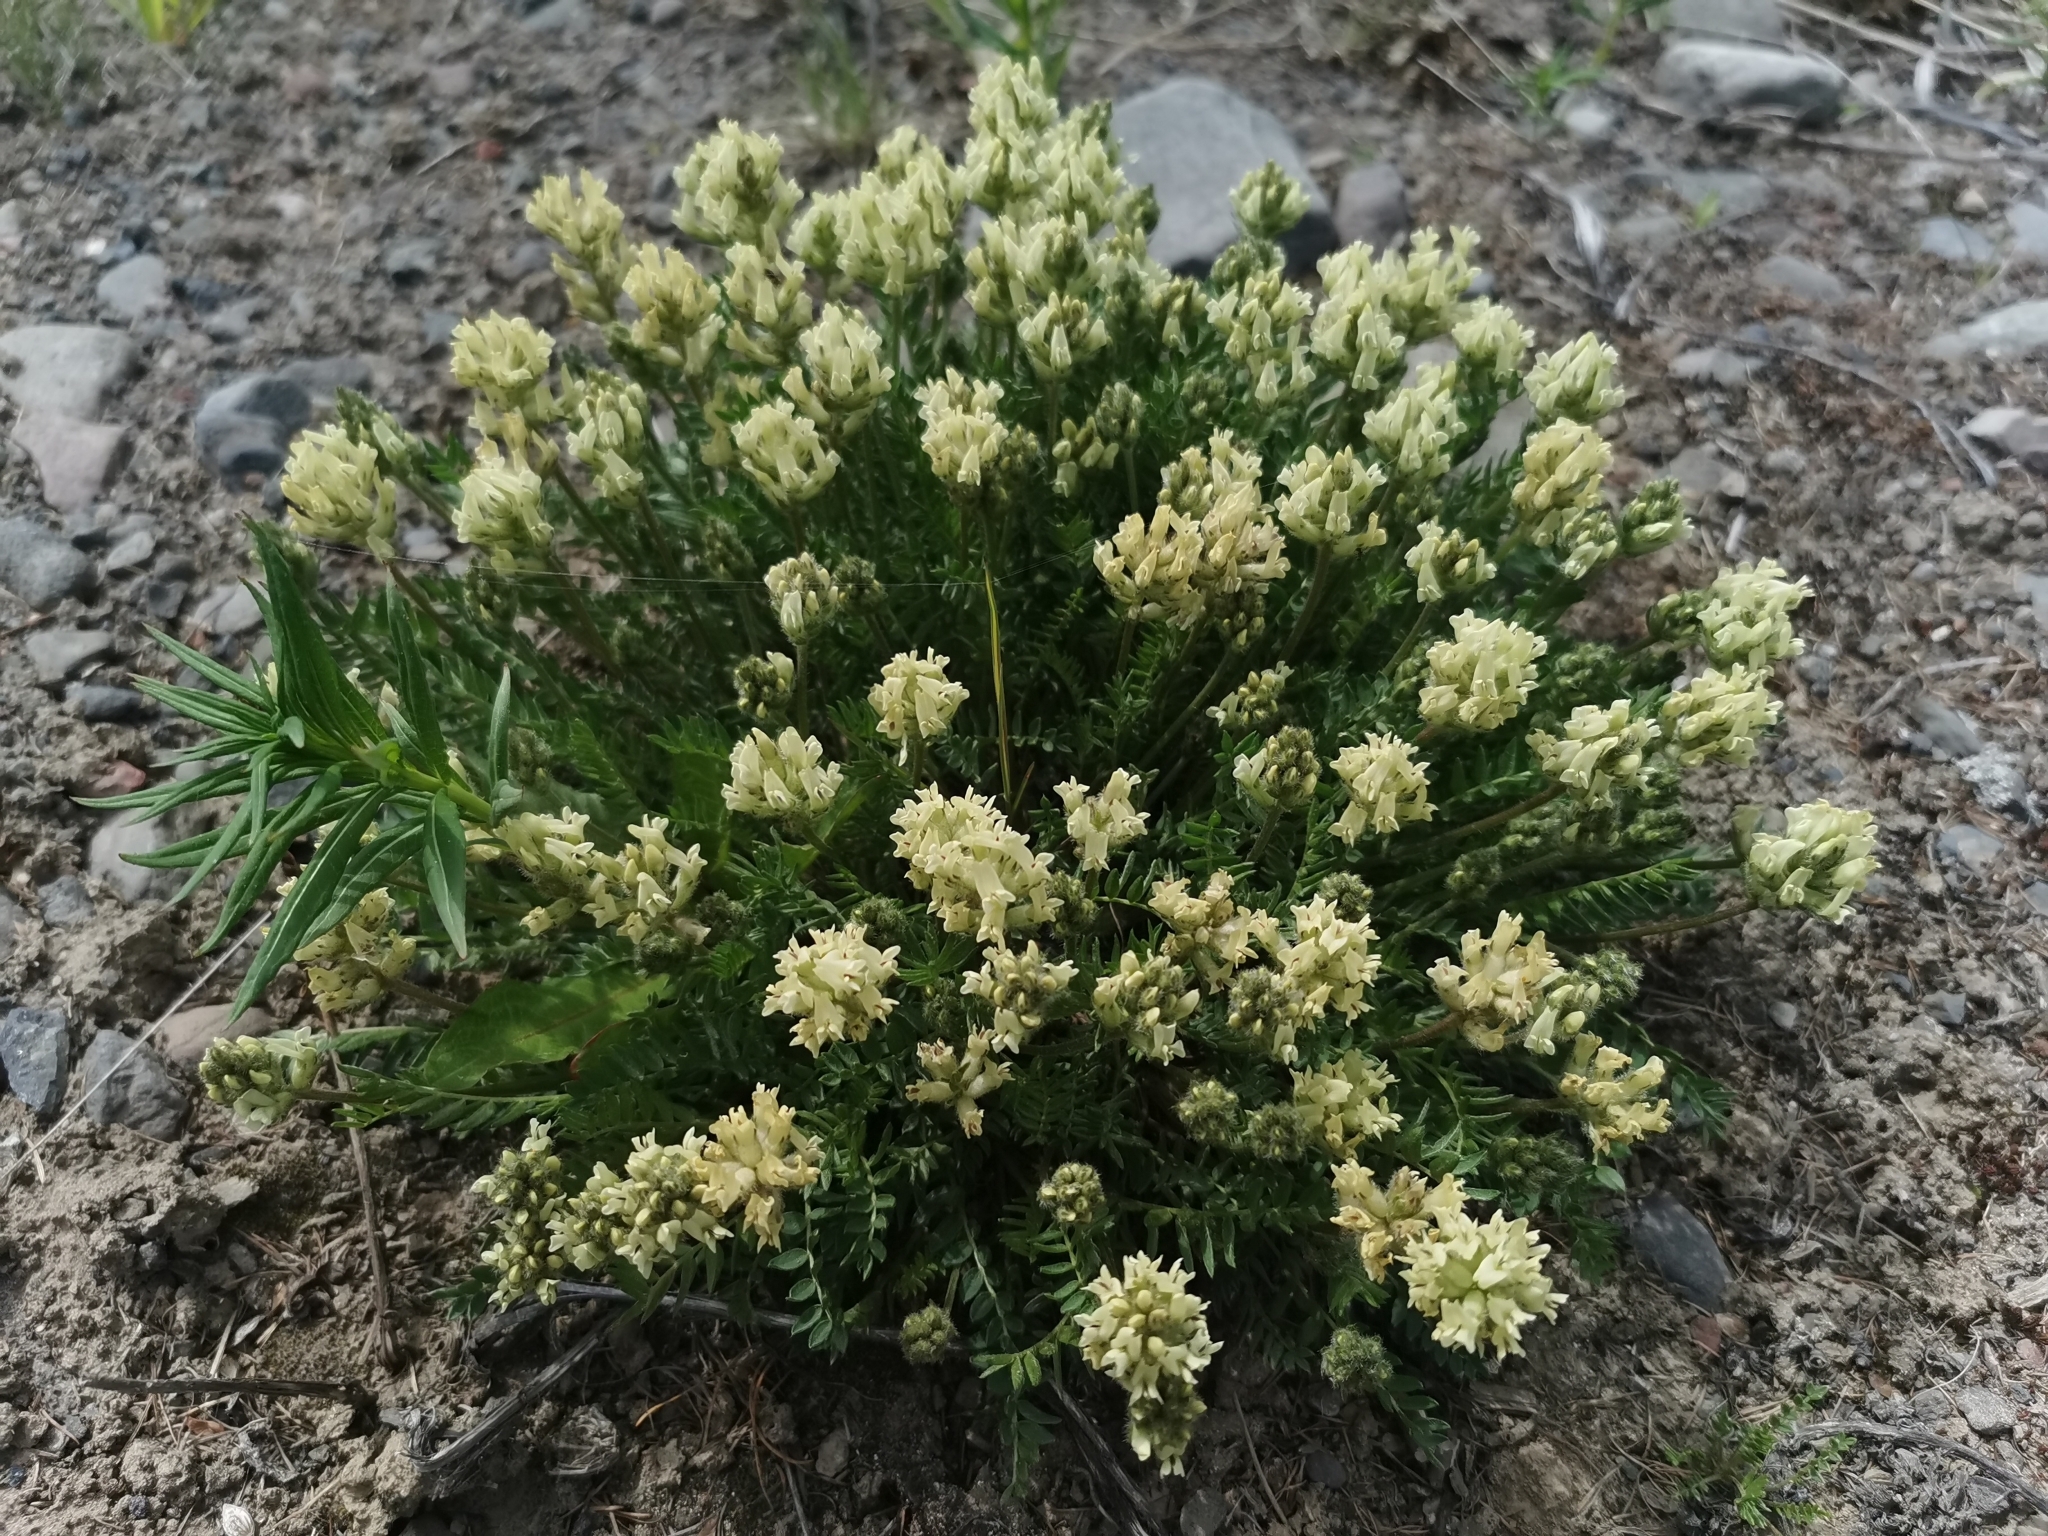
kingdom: Plantae
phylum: Tracheophyta
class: Magnoliopsida
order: Fabales
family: Fabaceae
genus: Oxytropis
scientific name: Oxytropis evenorum
